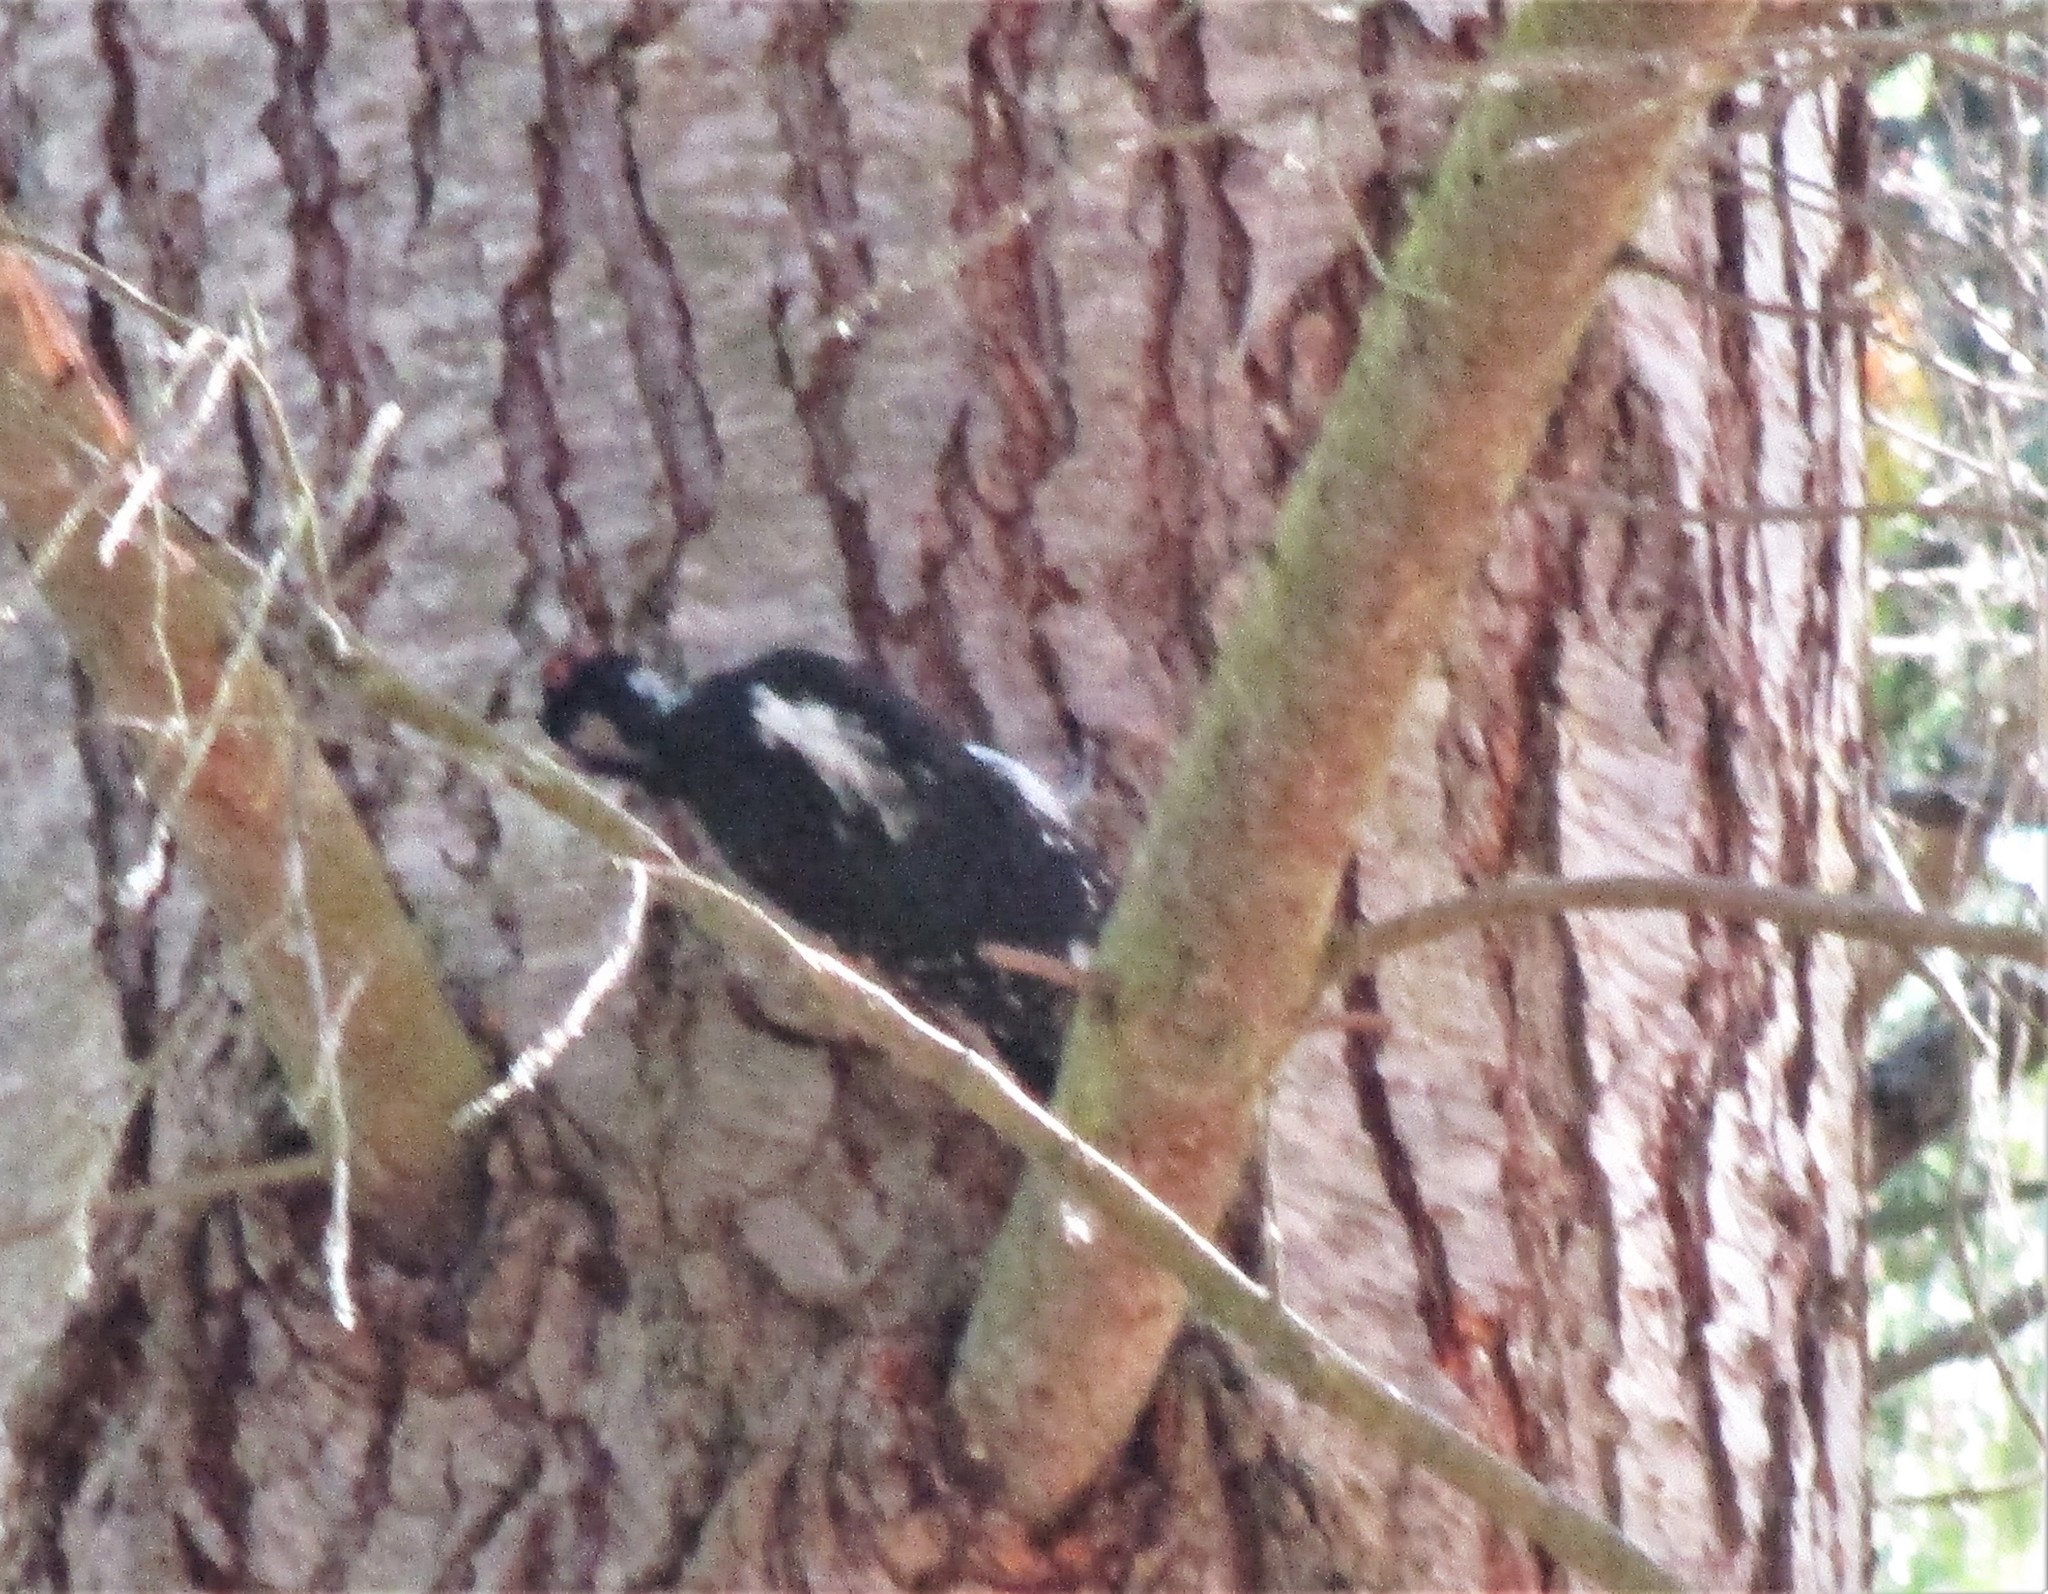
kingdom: Animalia
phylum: Chordata
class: Aves
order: Piciformes
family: Picidae
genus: Leuconotopicus
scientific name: Leuconotopicus villosus
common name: Hairy woodpecker
